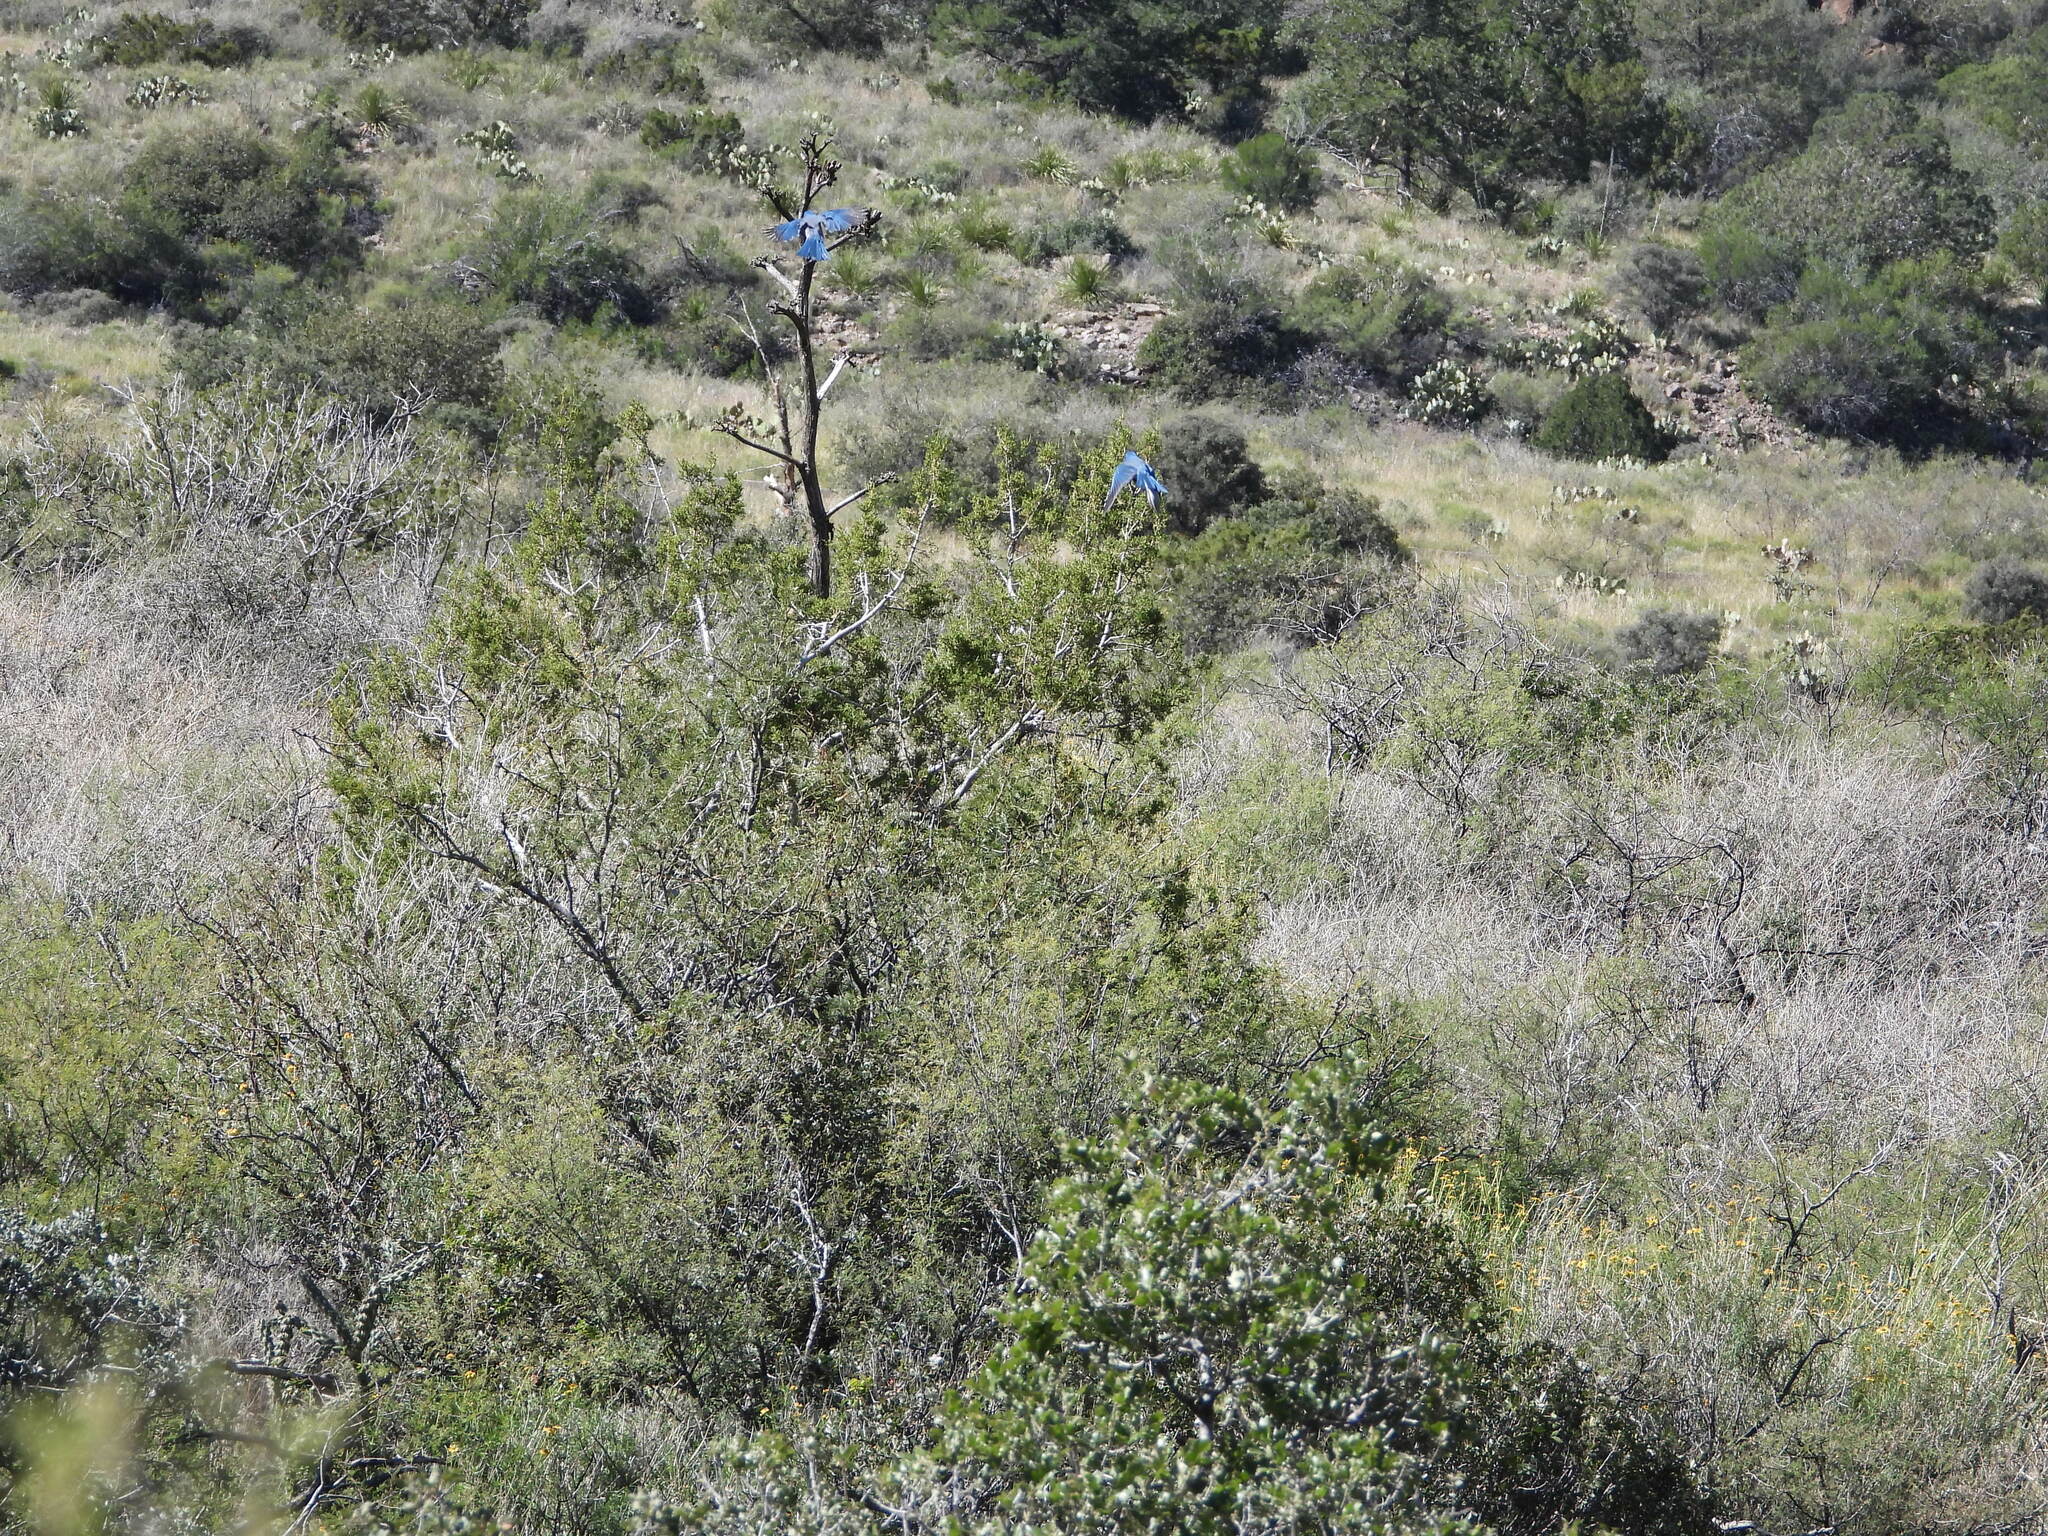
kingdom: Animalia
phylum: Chordata
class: Aves
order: Passeriformes
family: Corvidae
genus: Aphelocoma
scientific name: Aphelocoma wollweberi
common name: Mexican jay
